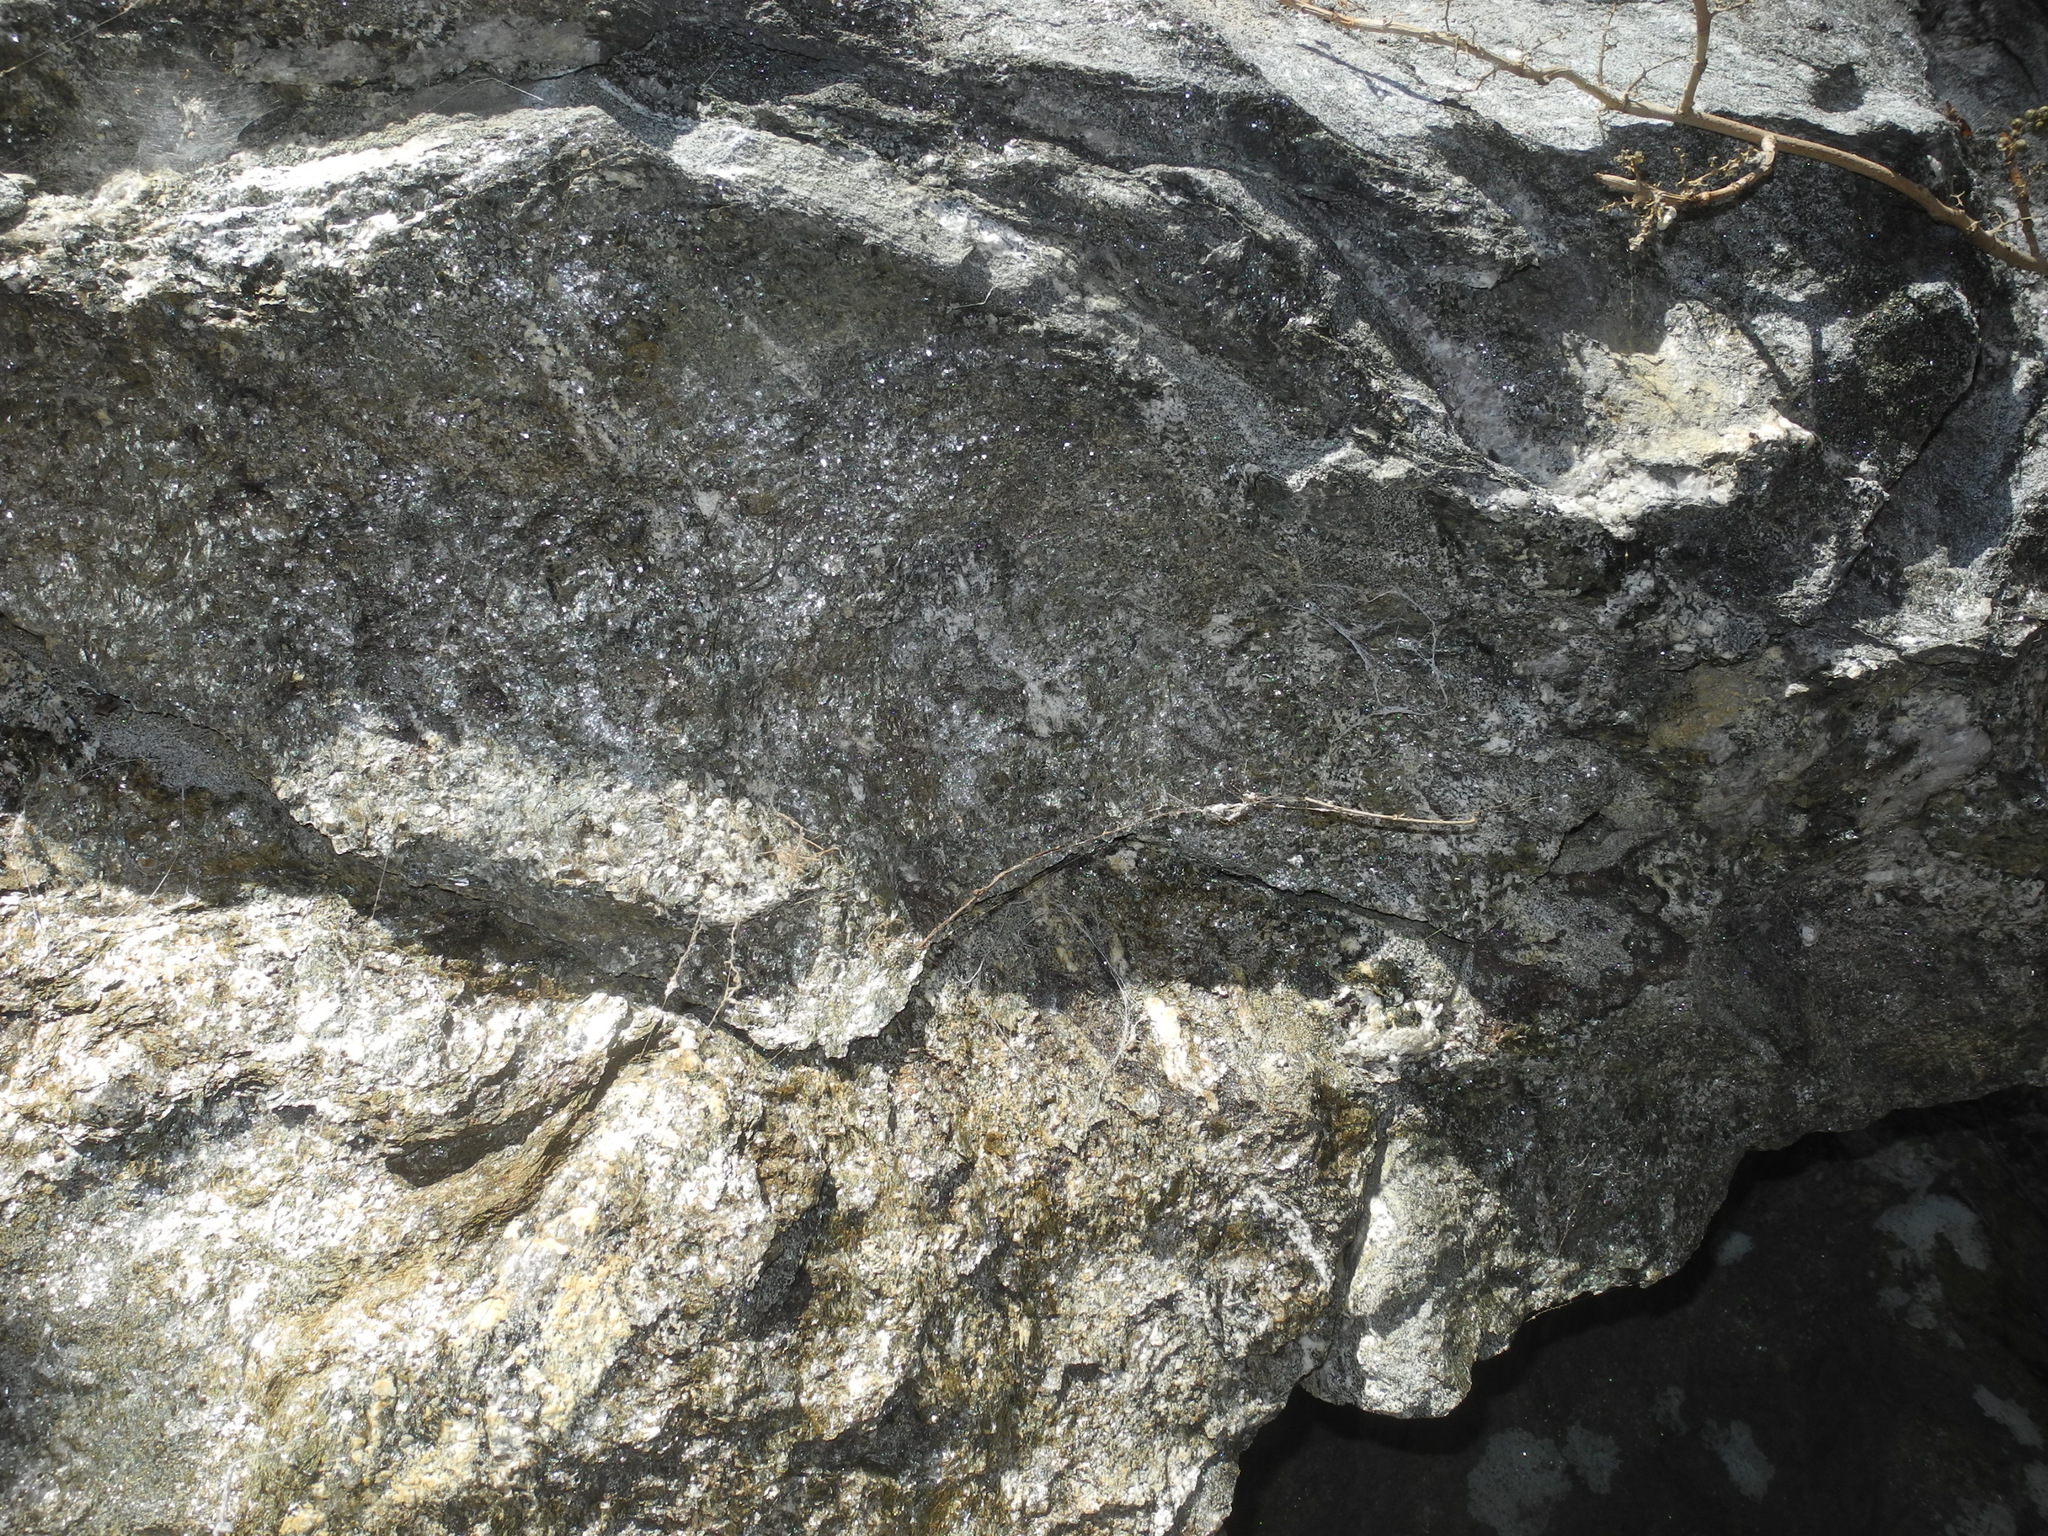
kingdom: Animalia
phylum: Arthropoda
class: Arachnida
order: Araneae
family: Hypochilidae
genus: Hypochilus
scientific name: Hypochilus pococki
